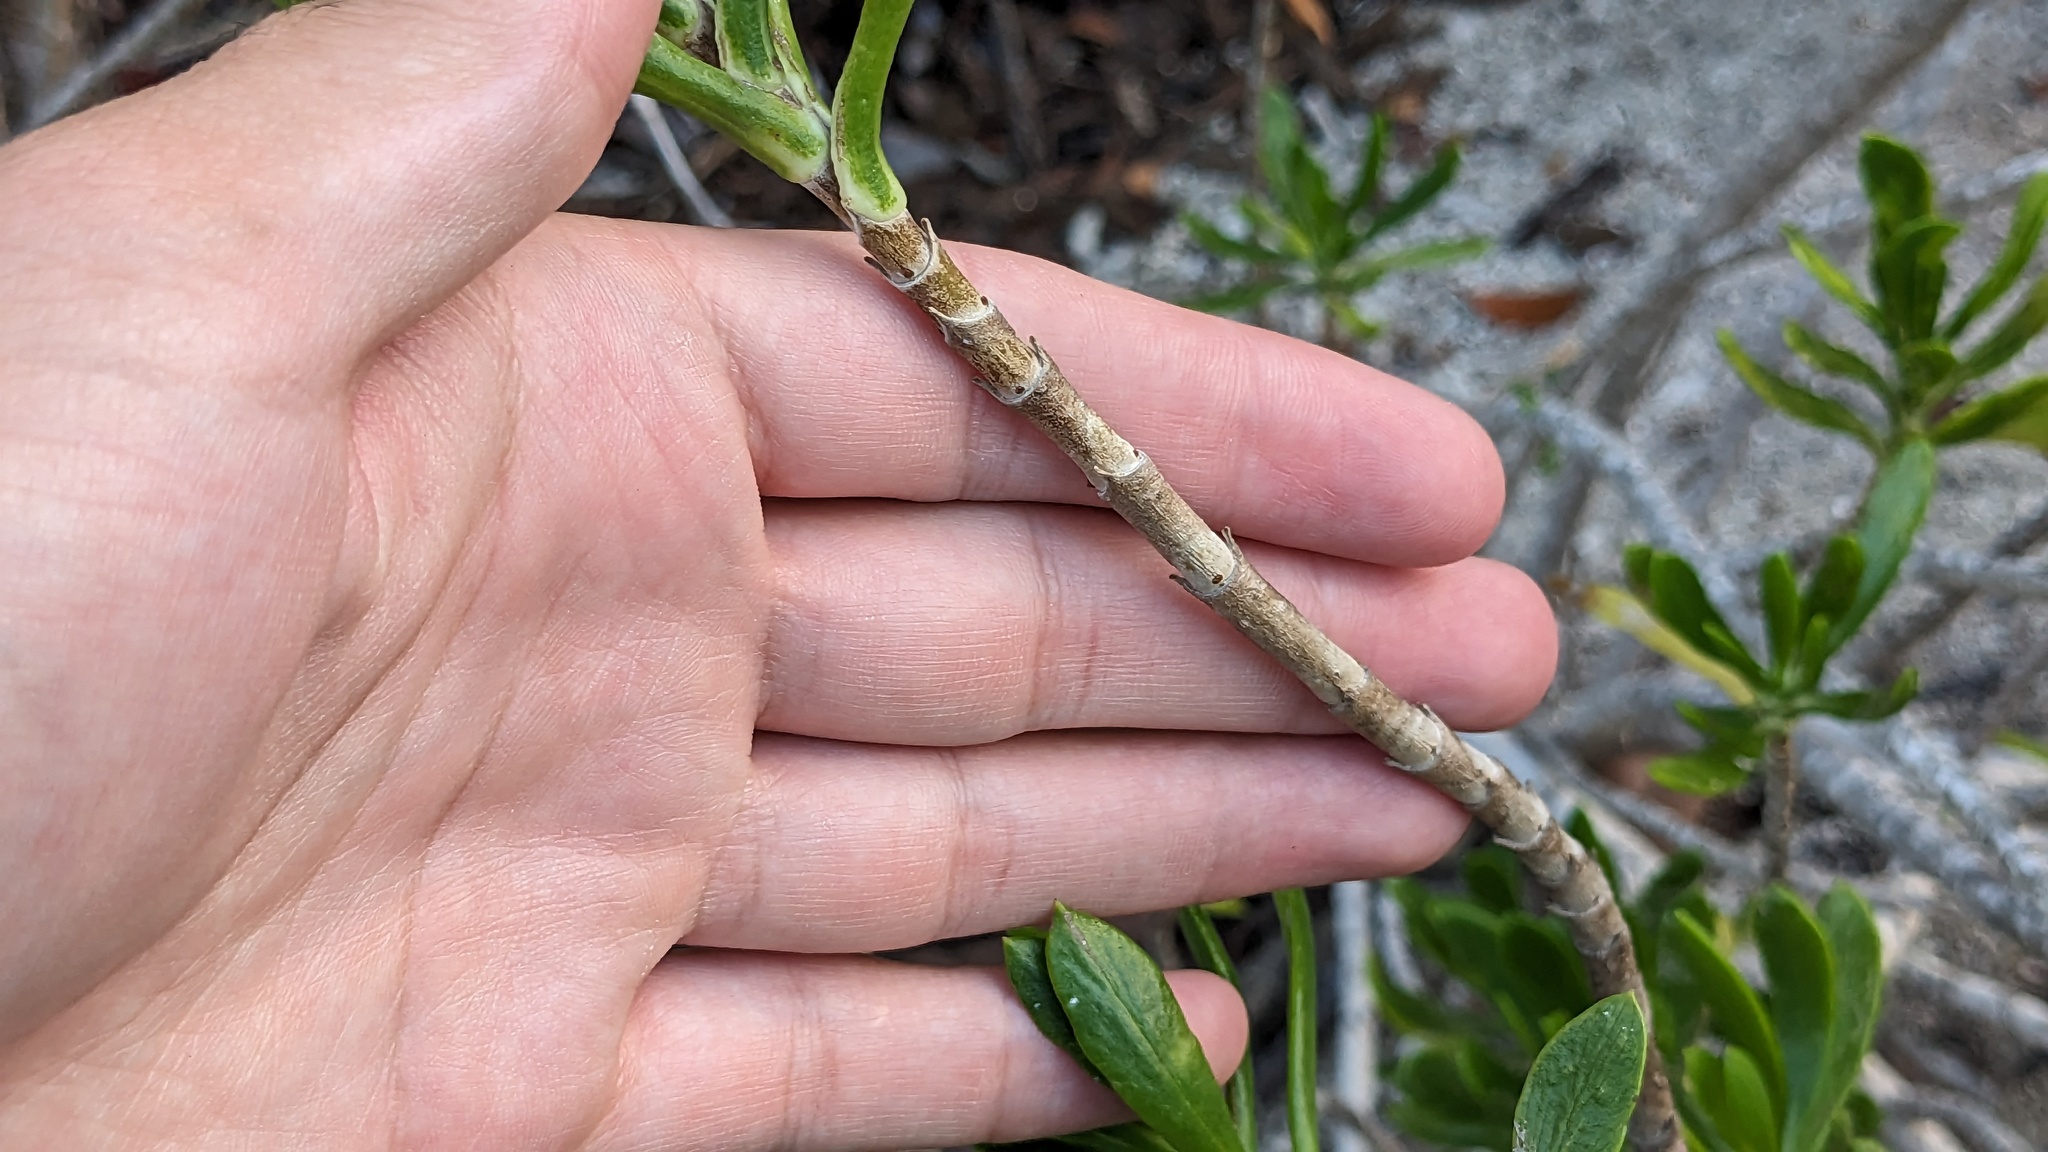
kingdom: Plantae
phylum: Tracheophyta
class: Magnoliopsida
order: Asterales
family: Asteraceae
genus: Borrichia
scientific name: Borrichia arborescens
